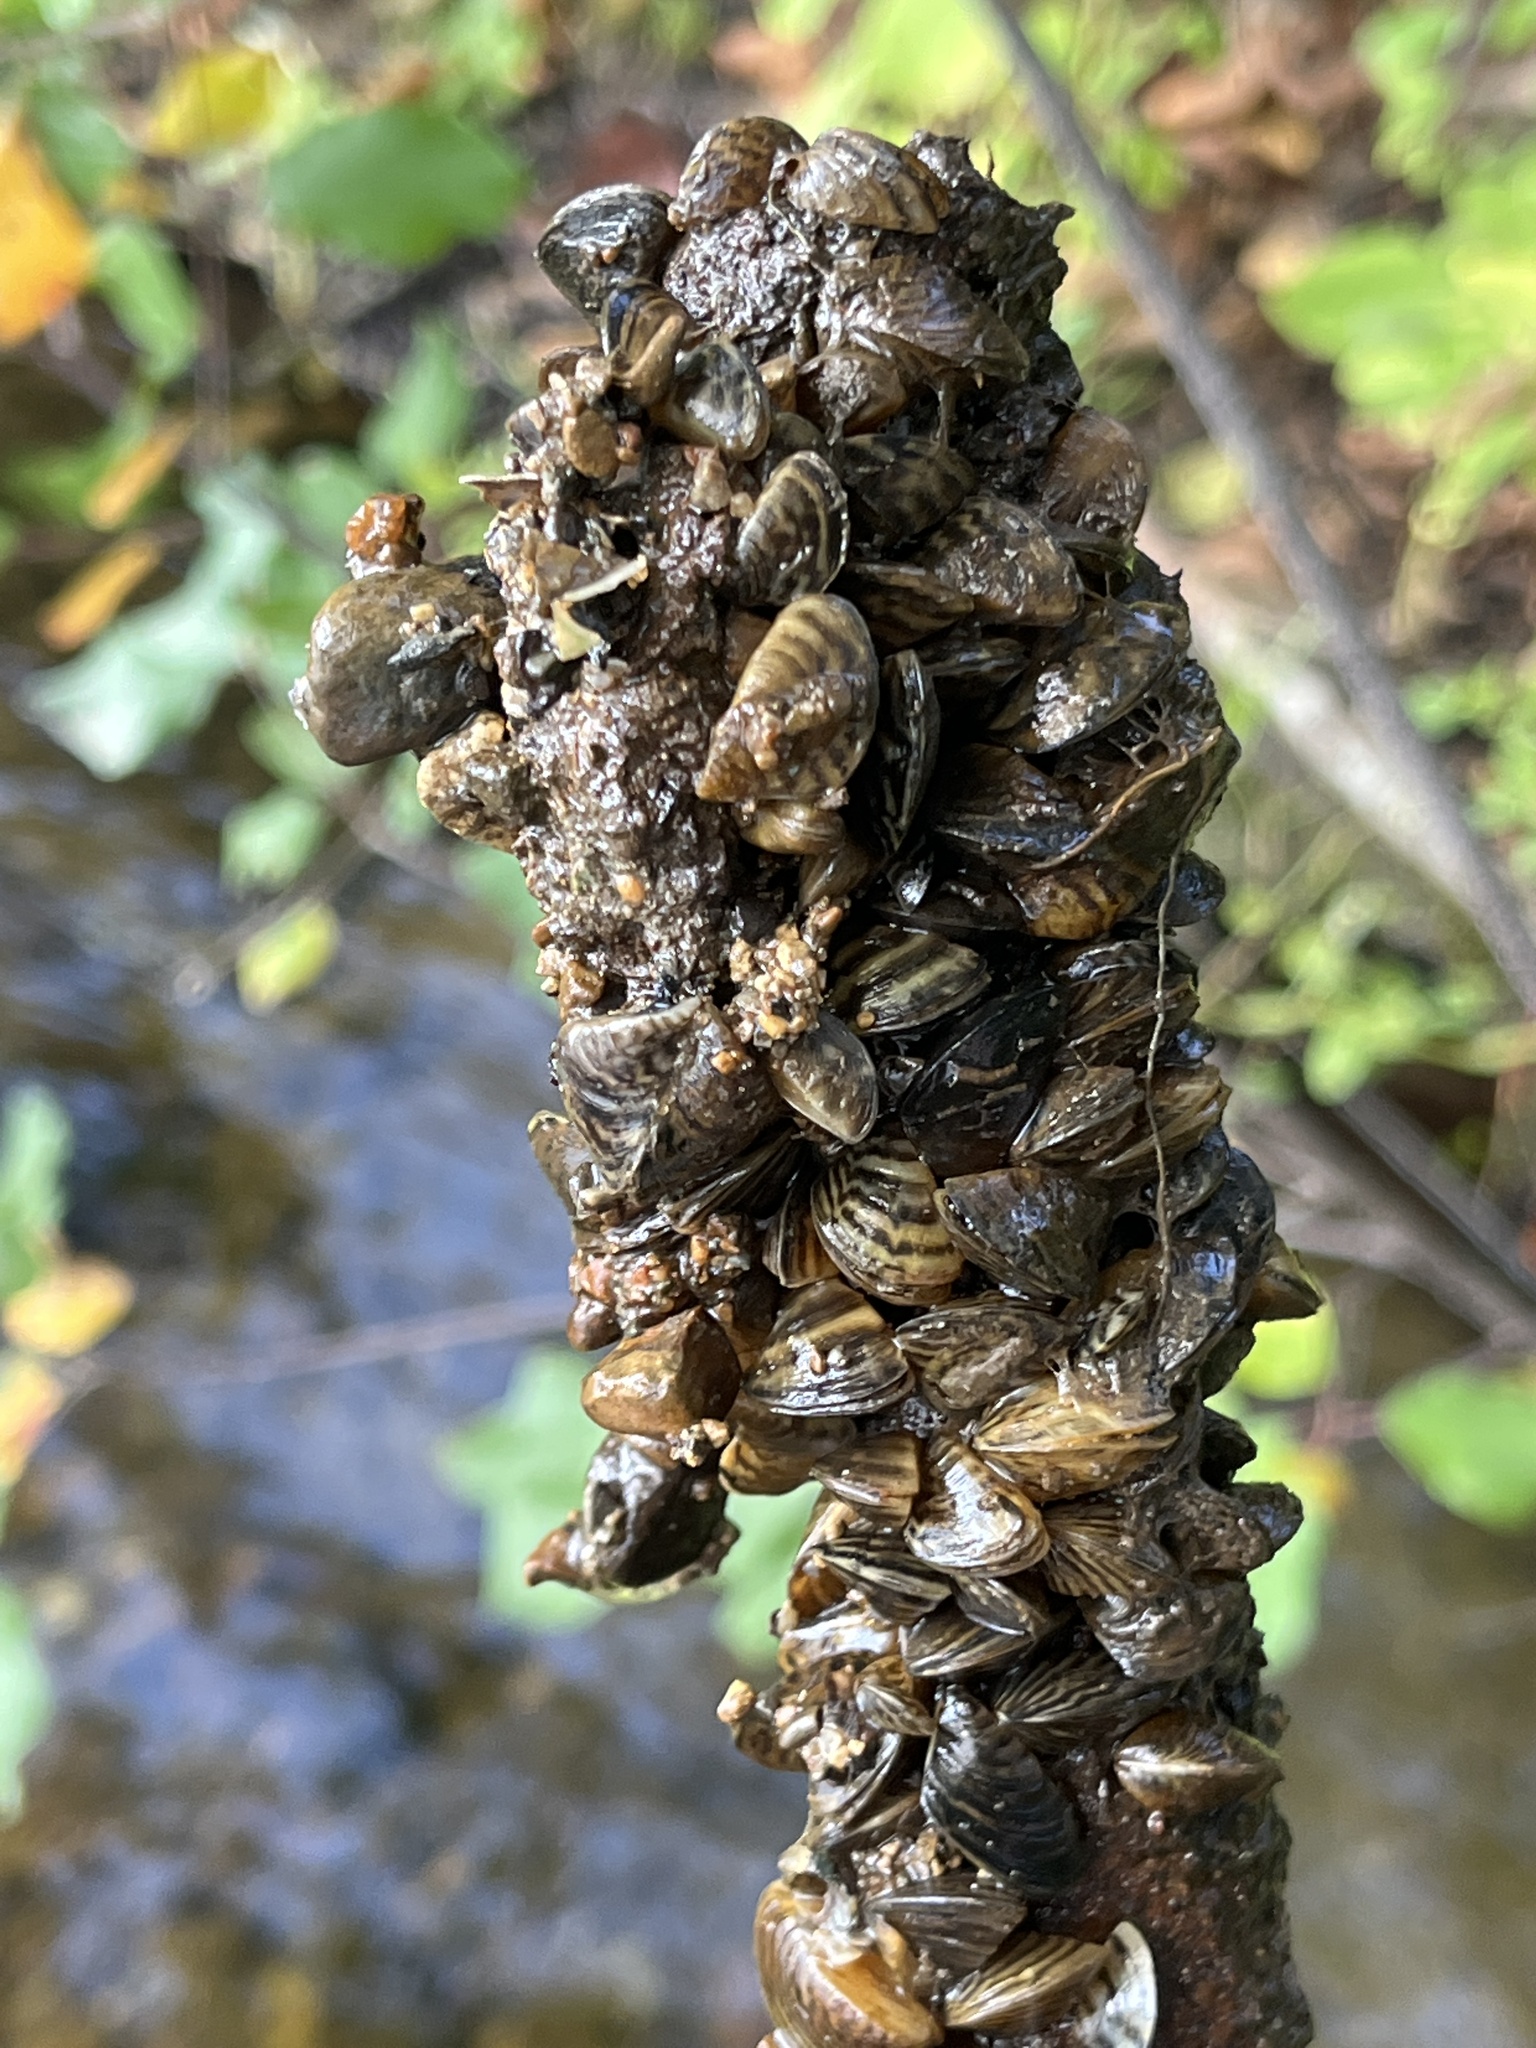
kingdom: Animalia
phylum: Mollusca
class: Bivalvia
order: Myida
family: Dreissenidae
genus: Dreissena
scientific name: Dreissena polymorpha
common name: Zebra mussel
